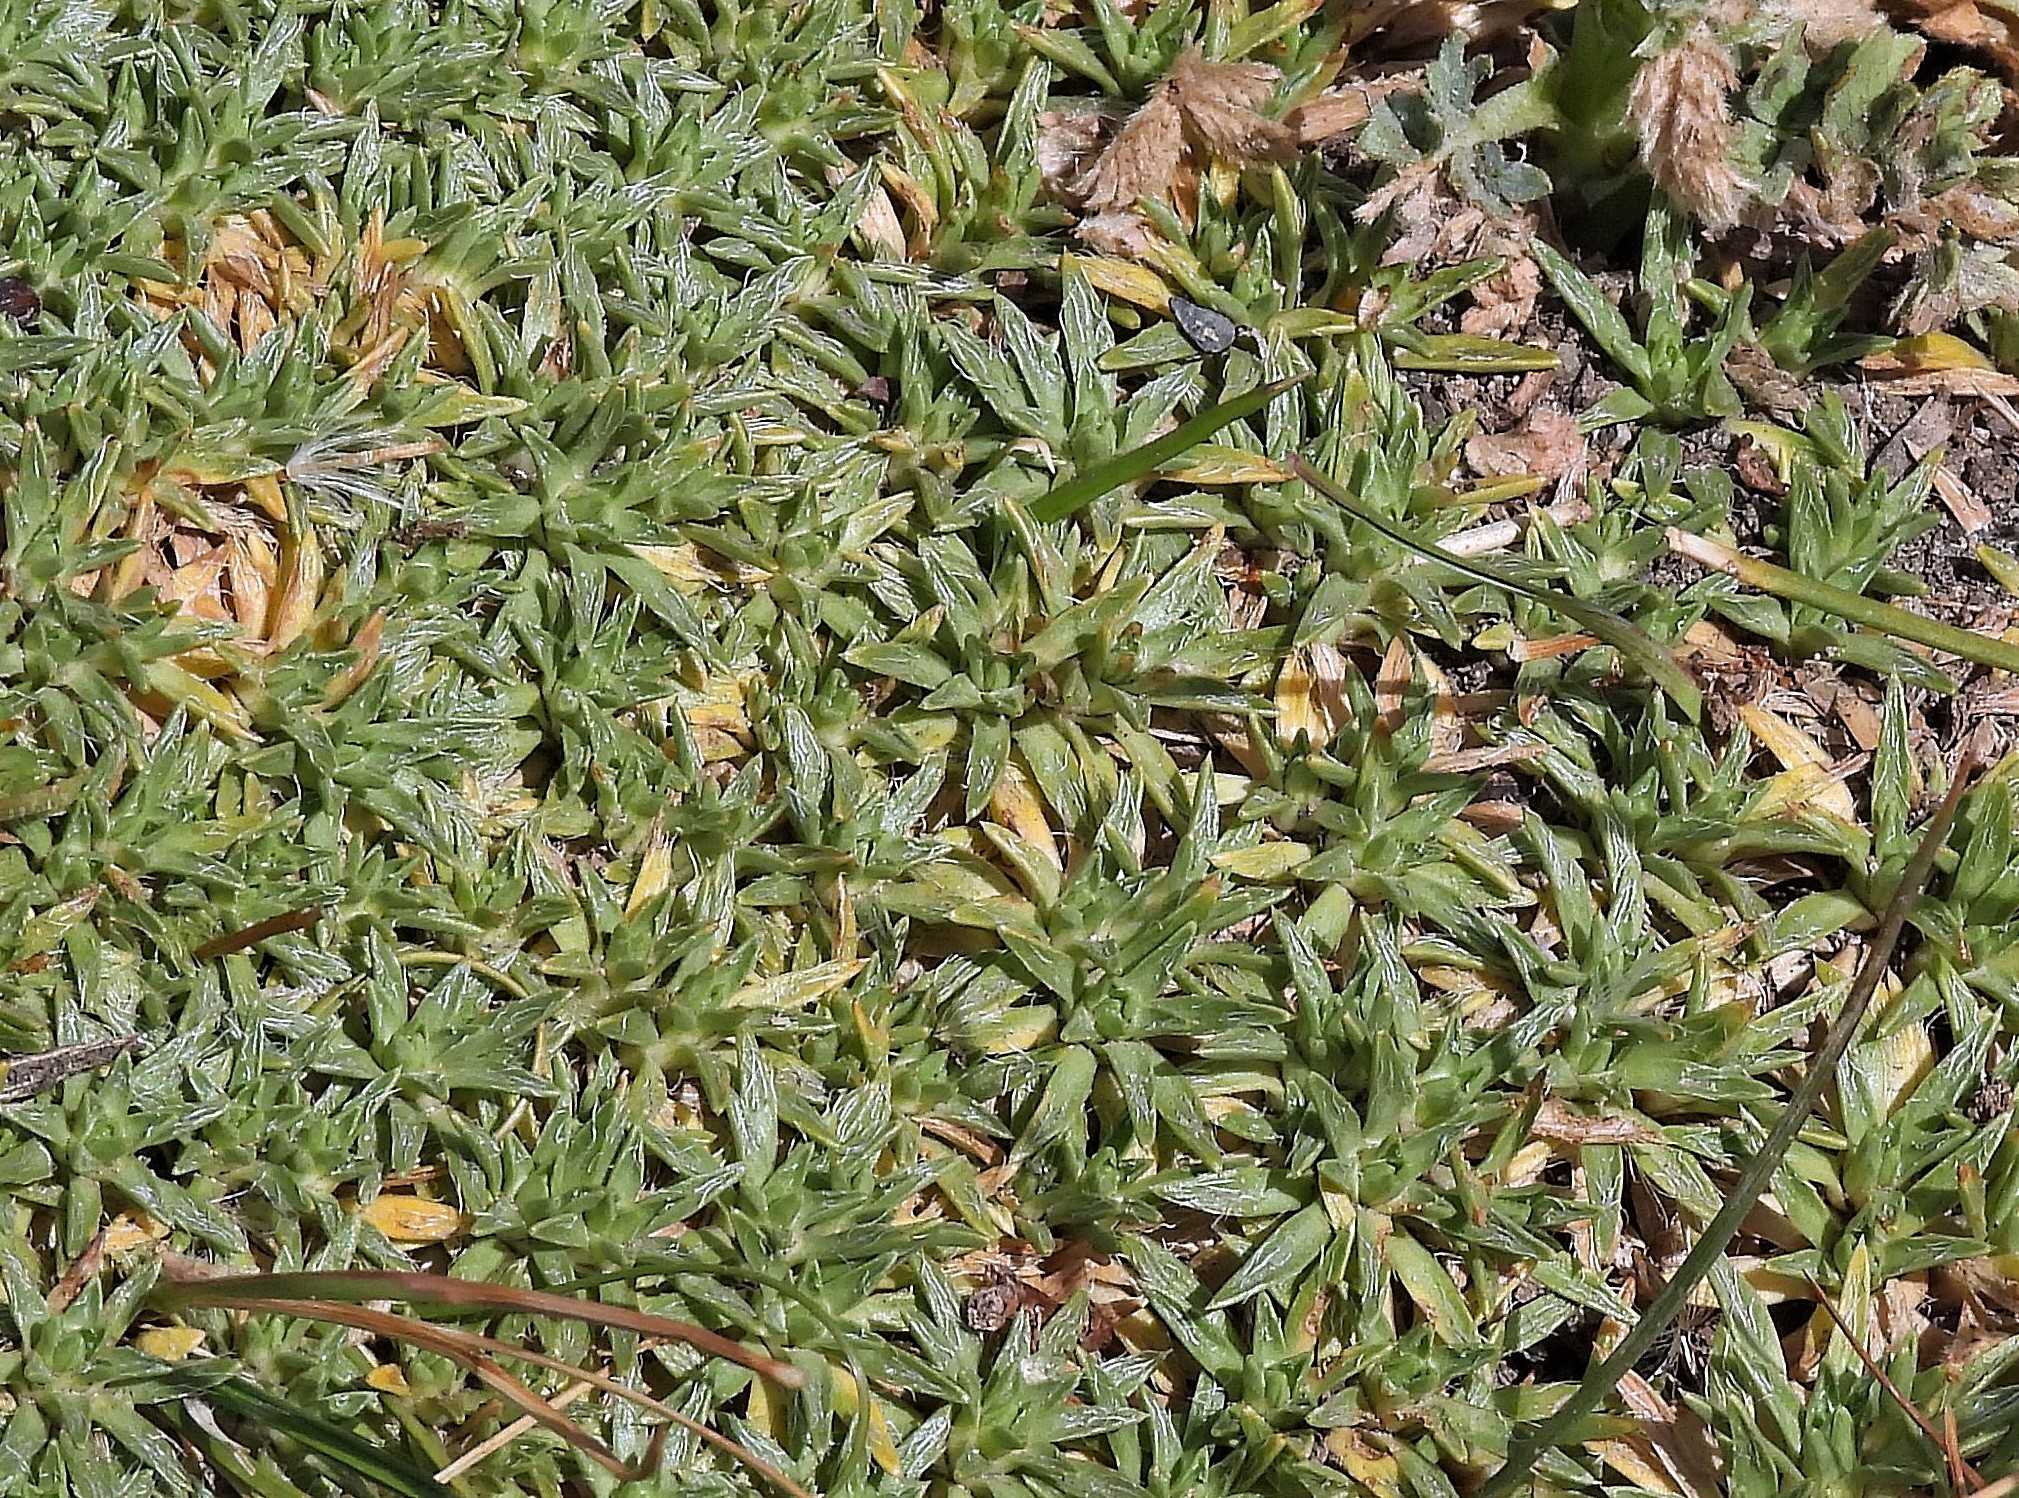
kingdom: Plantae
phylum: Tracheophyta
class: Magnoliopsida
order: Apiales
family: Apiaceae
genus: Azorella
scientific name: Azorella monantha
